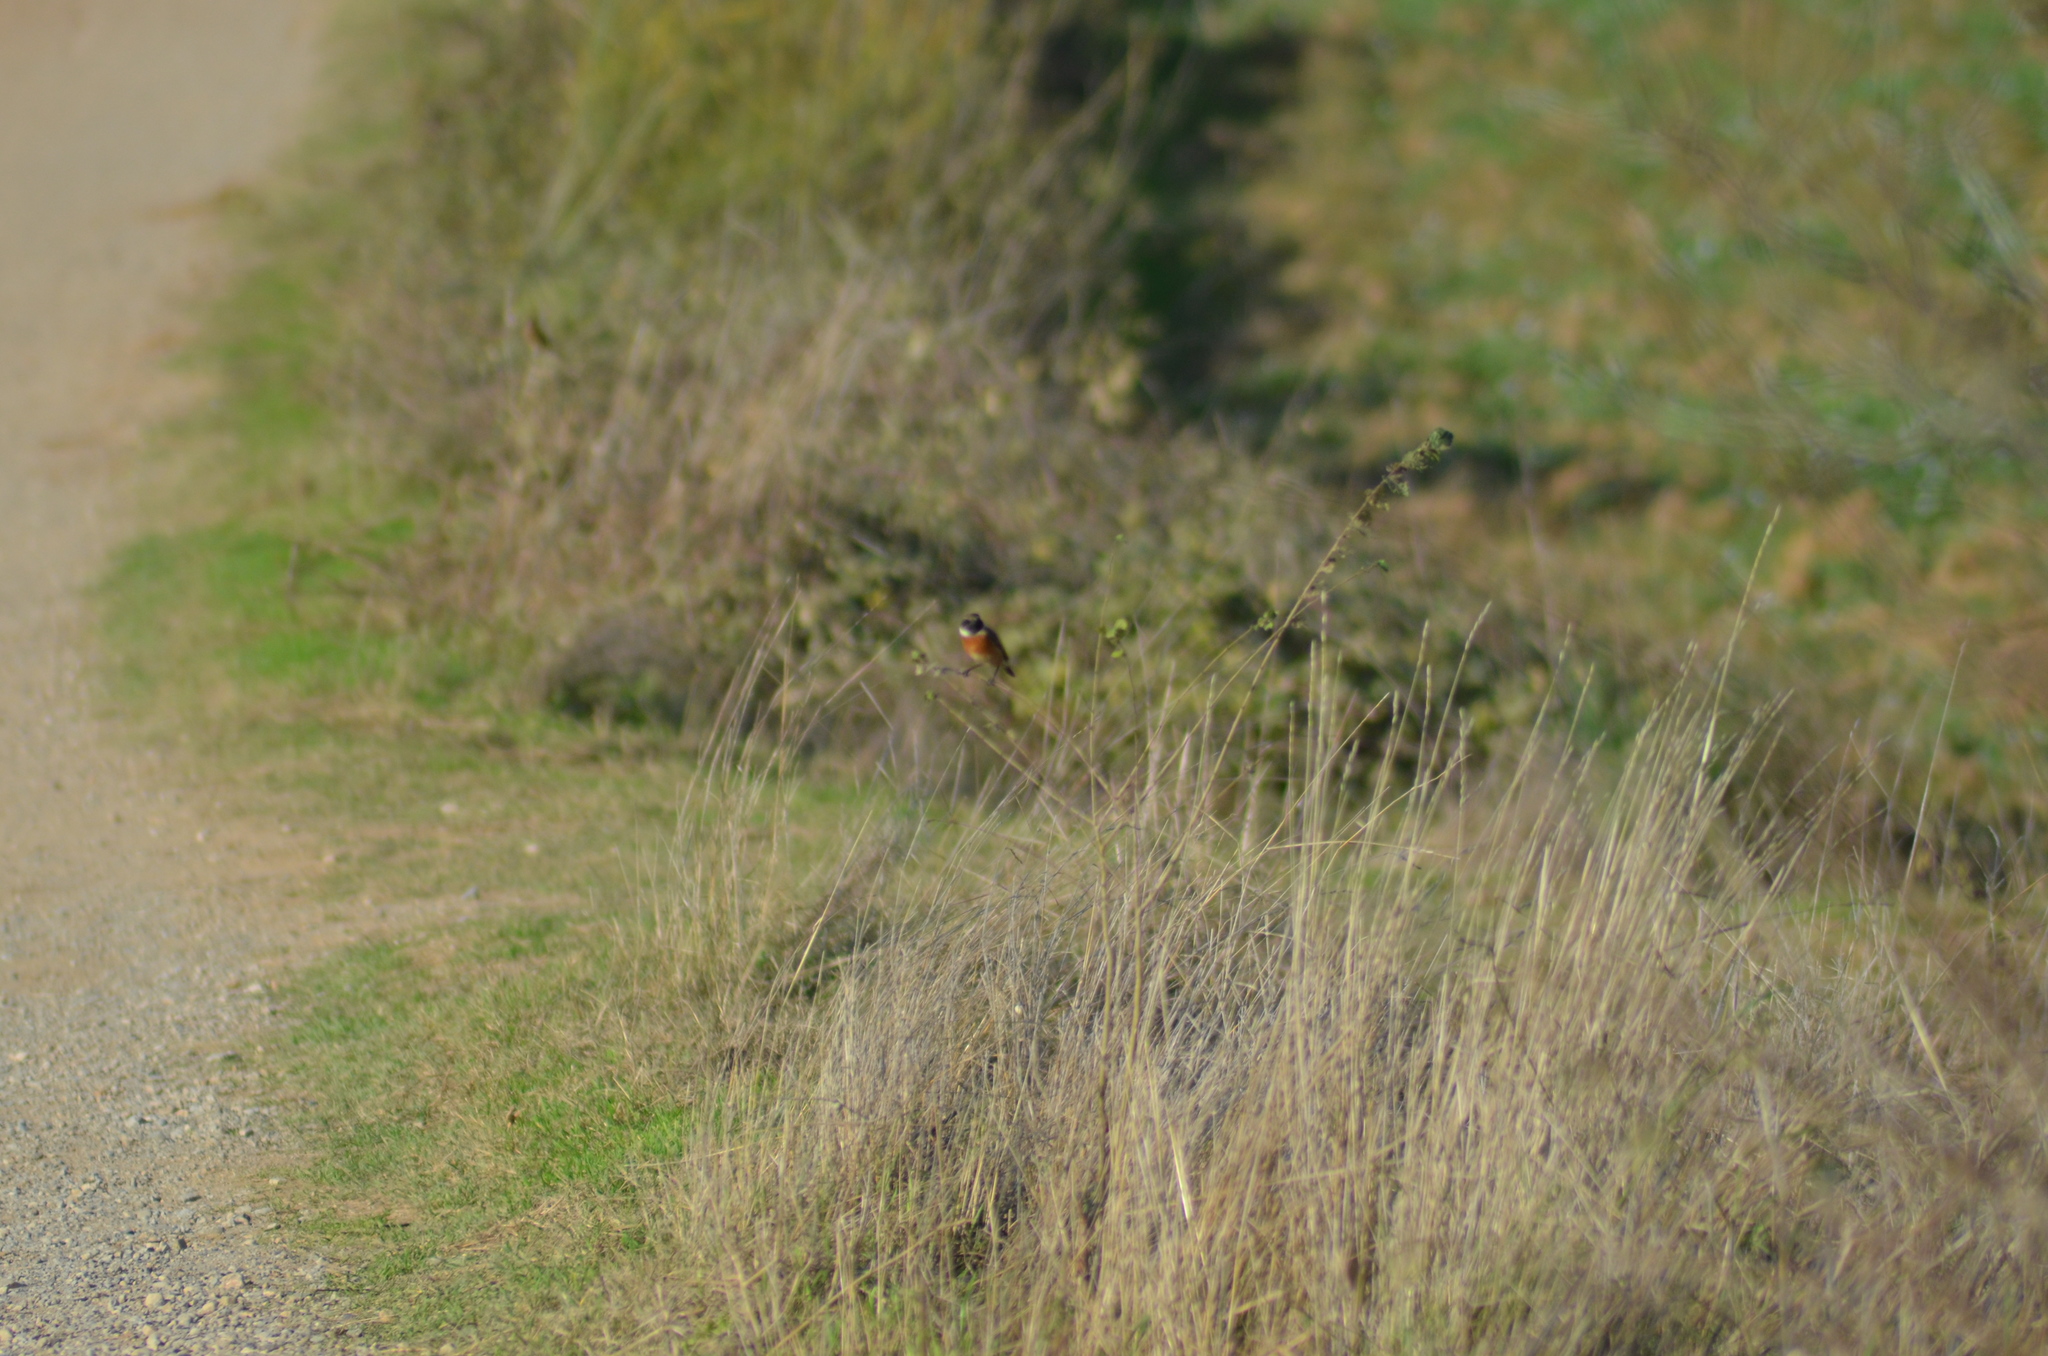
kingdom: Animalia
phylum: Chordata
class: Aves
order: Passeriformes
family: Muscicapidae
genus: Saxicola
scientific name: Saxicola rubicola
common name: European stonechat
